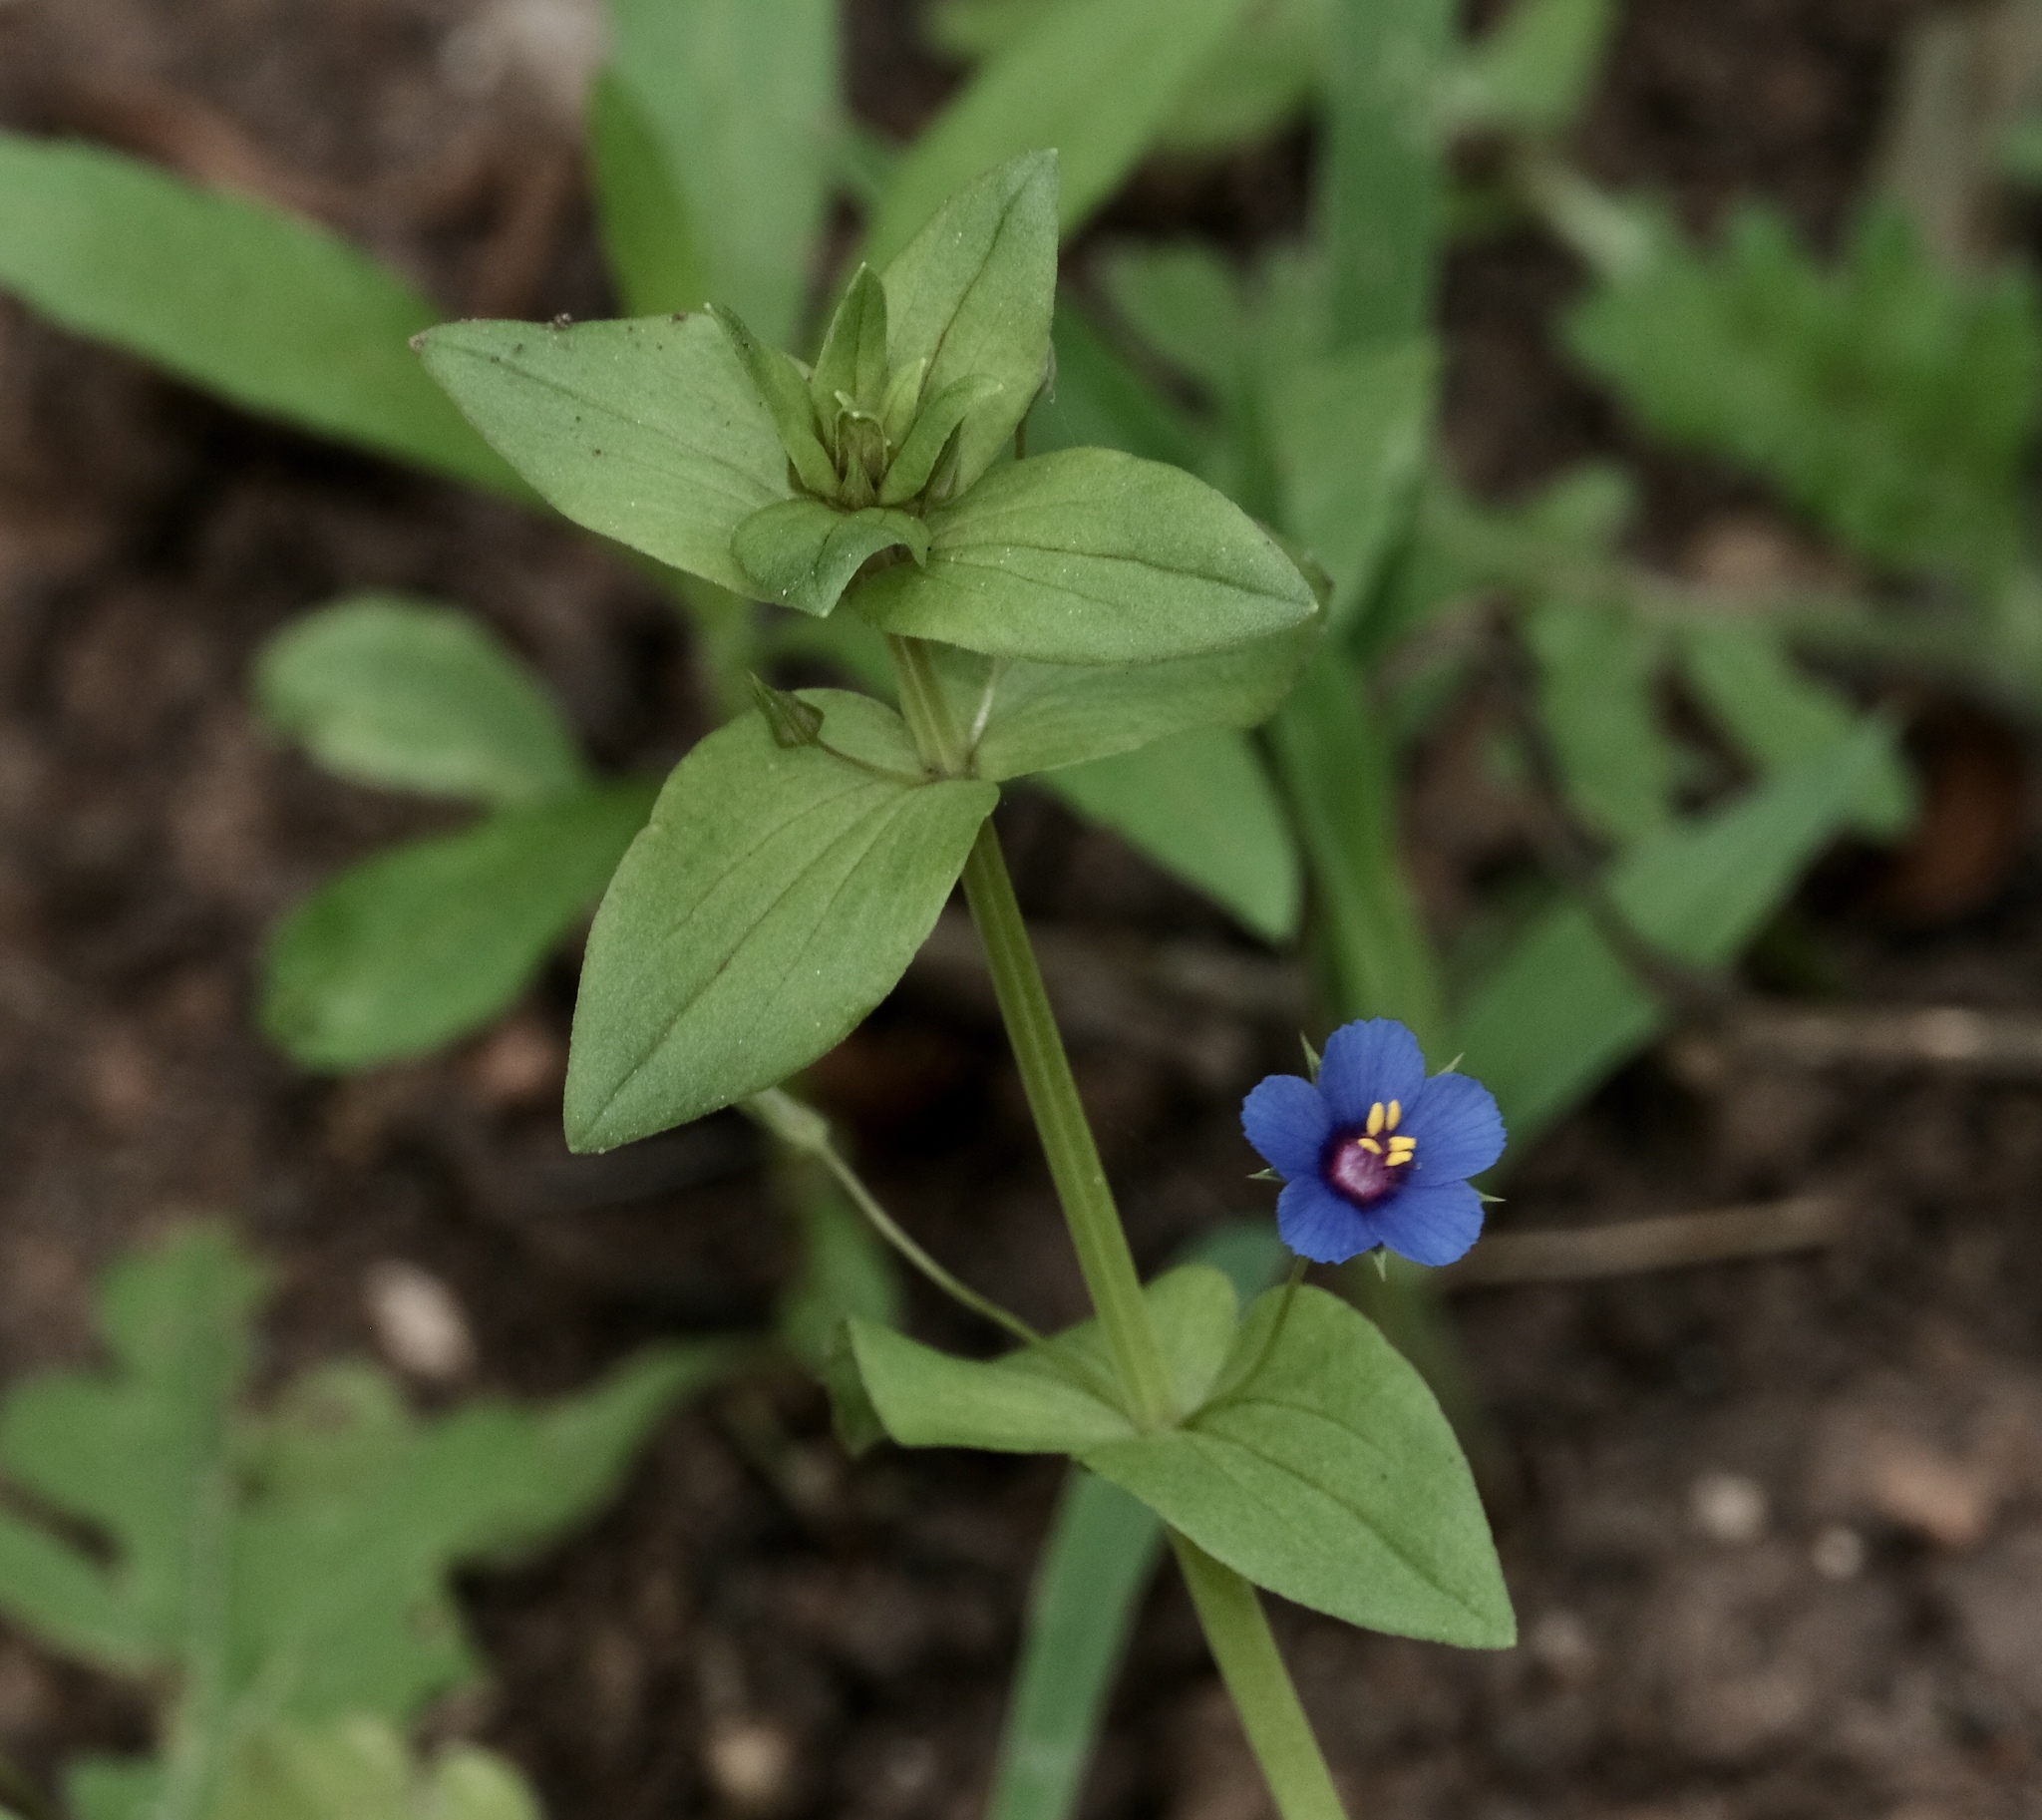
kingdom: Plantae
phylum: Tracheophyta
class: Magnoliopsida
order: Ericales
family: Primulaceae
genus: Lysimachia
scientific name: Lysimachia arvensis
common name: Scarlet pimpernel
